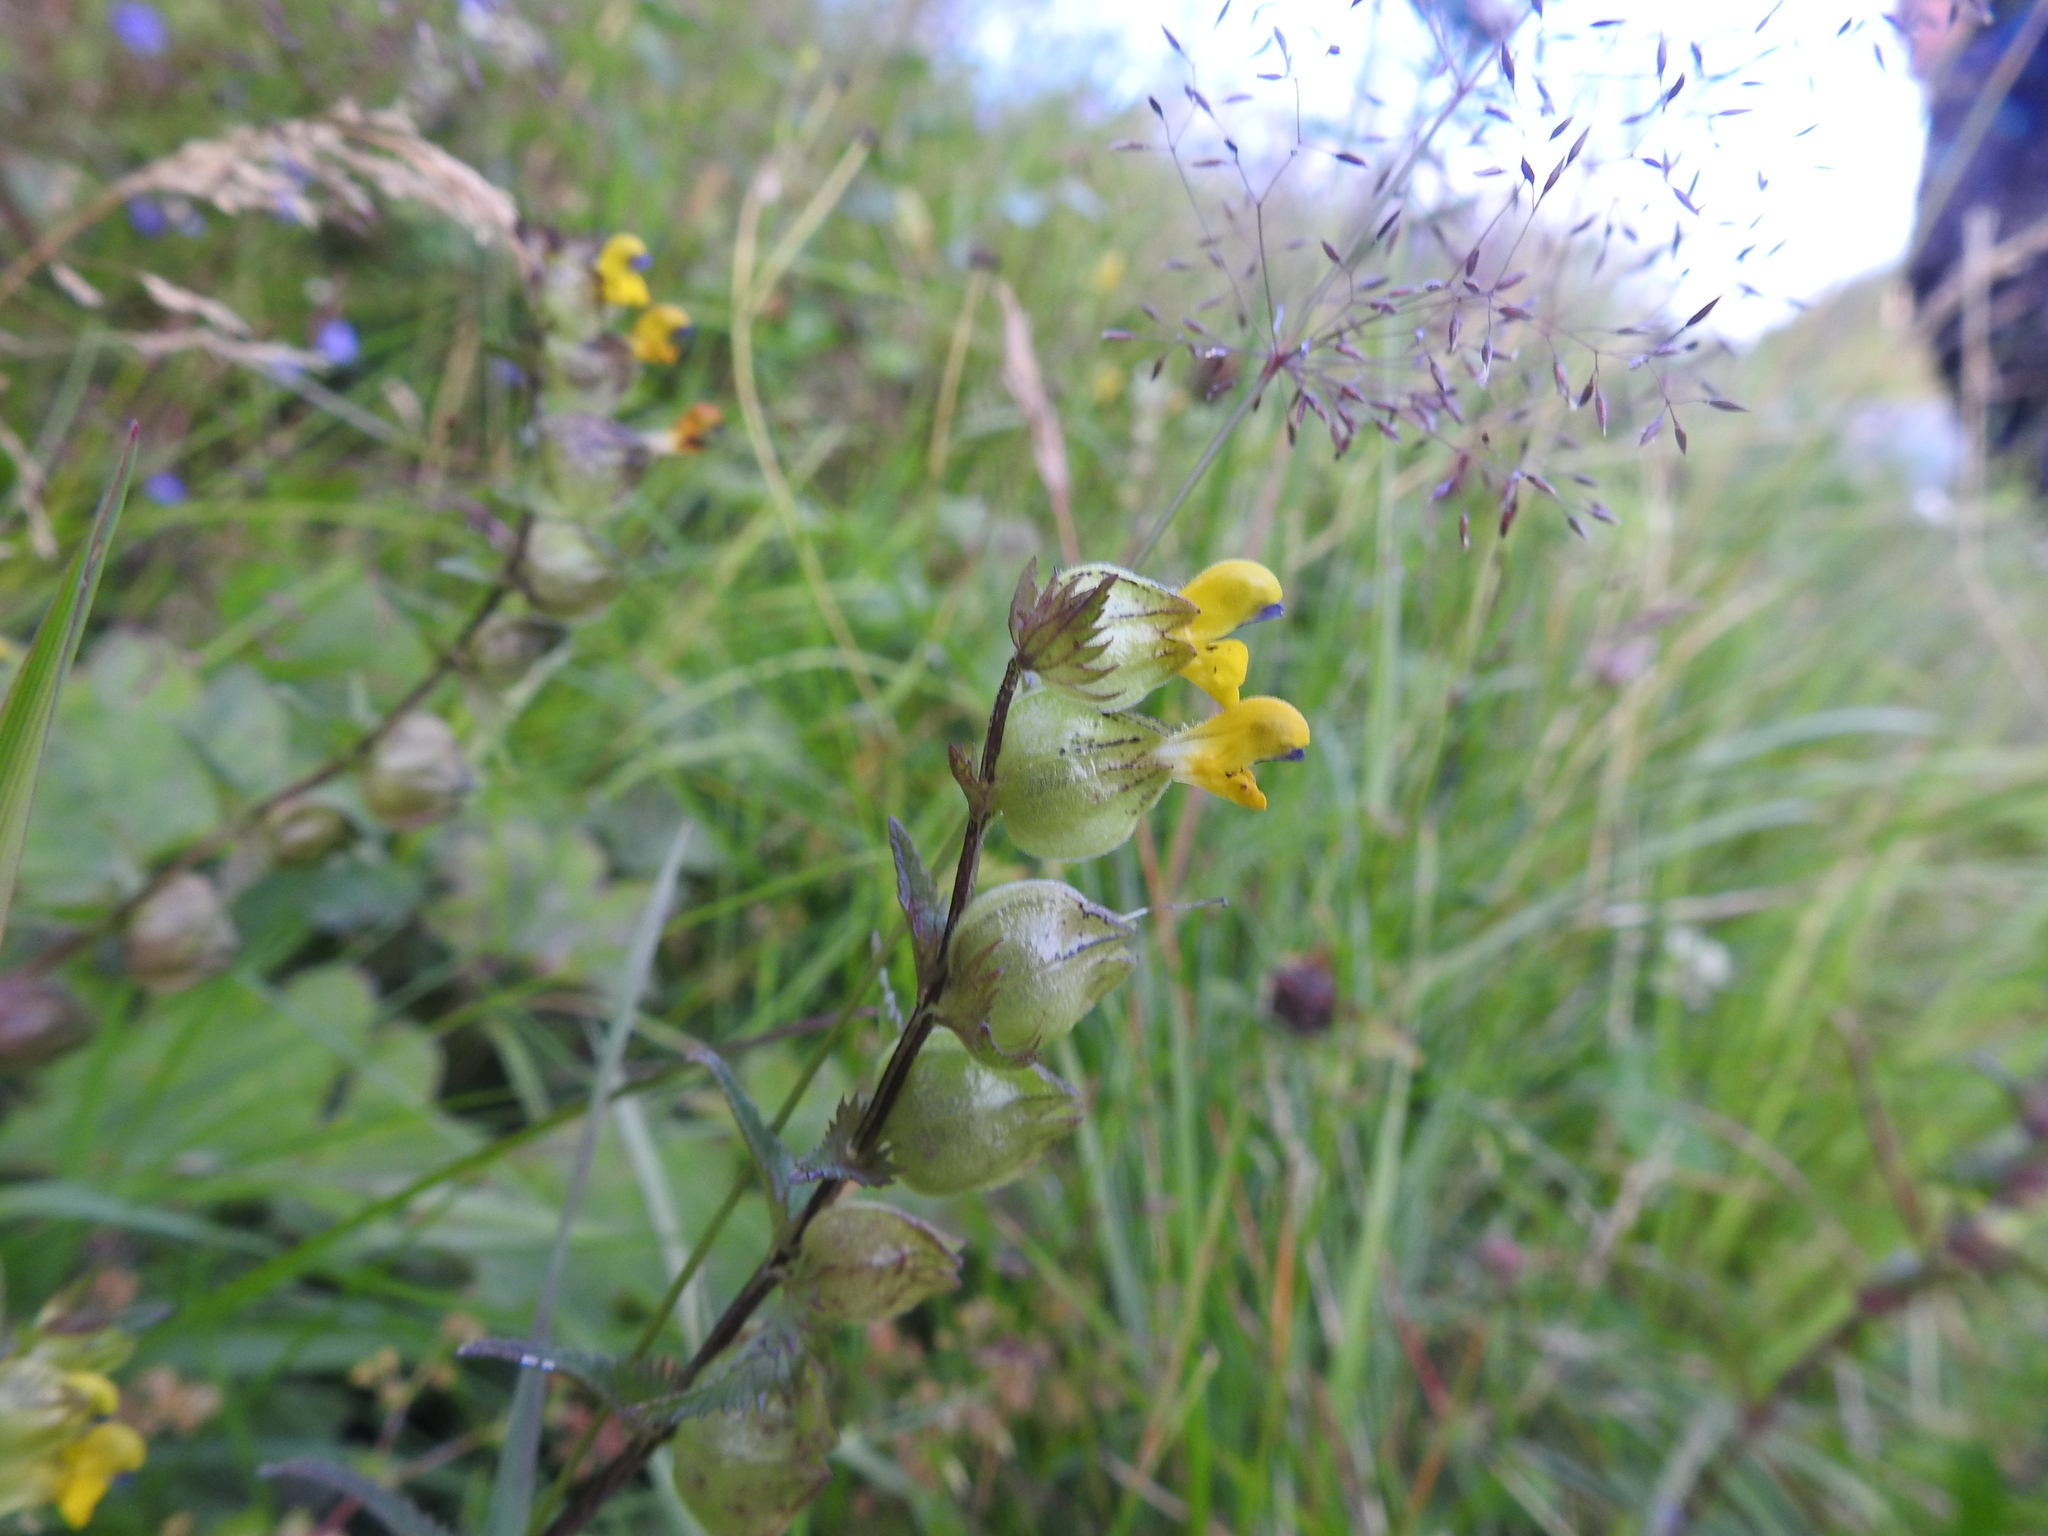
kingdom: Plantae
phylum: Tracheophyta
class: Magnoliopsida
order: Lamiales
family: Orobanchaceae
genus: Rhinanthus
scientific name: Rhinanthus minor
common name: Yellow-rattle
